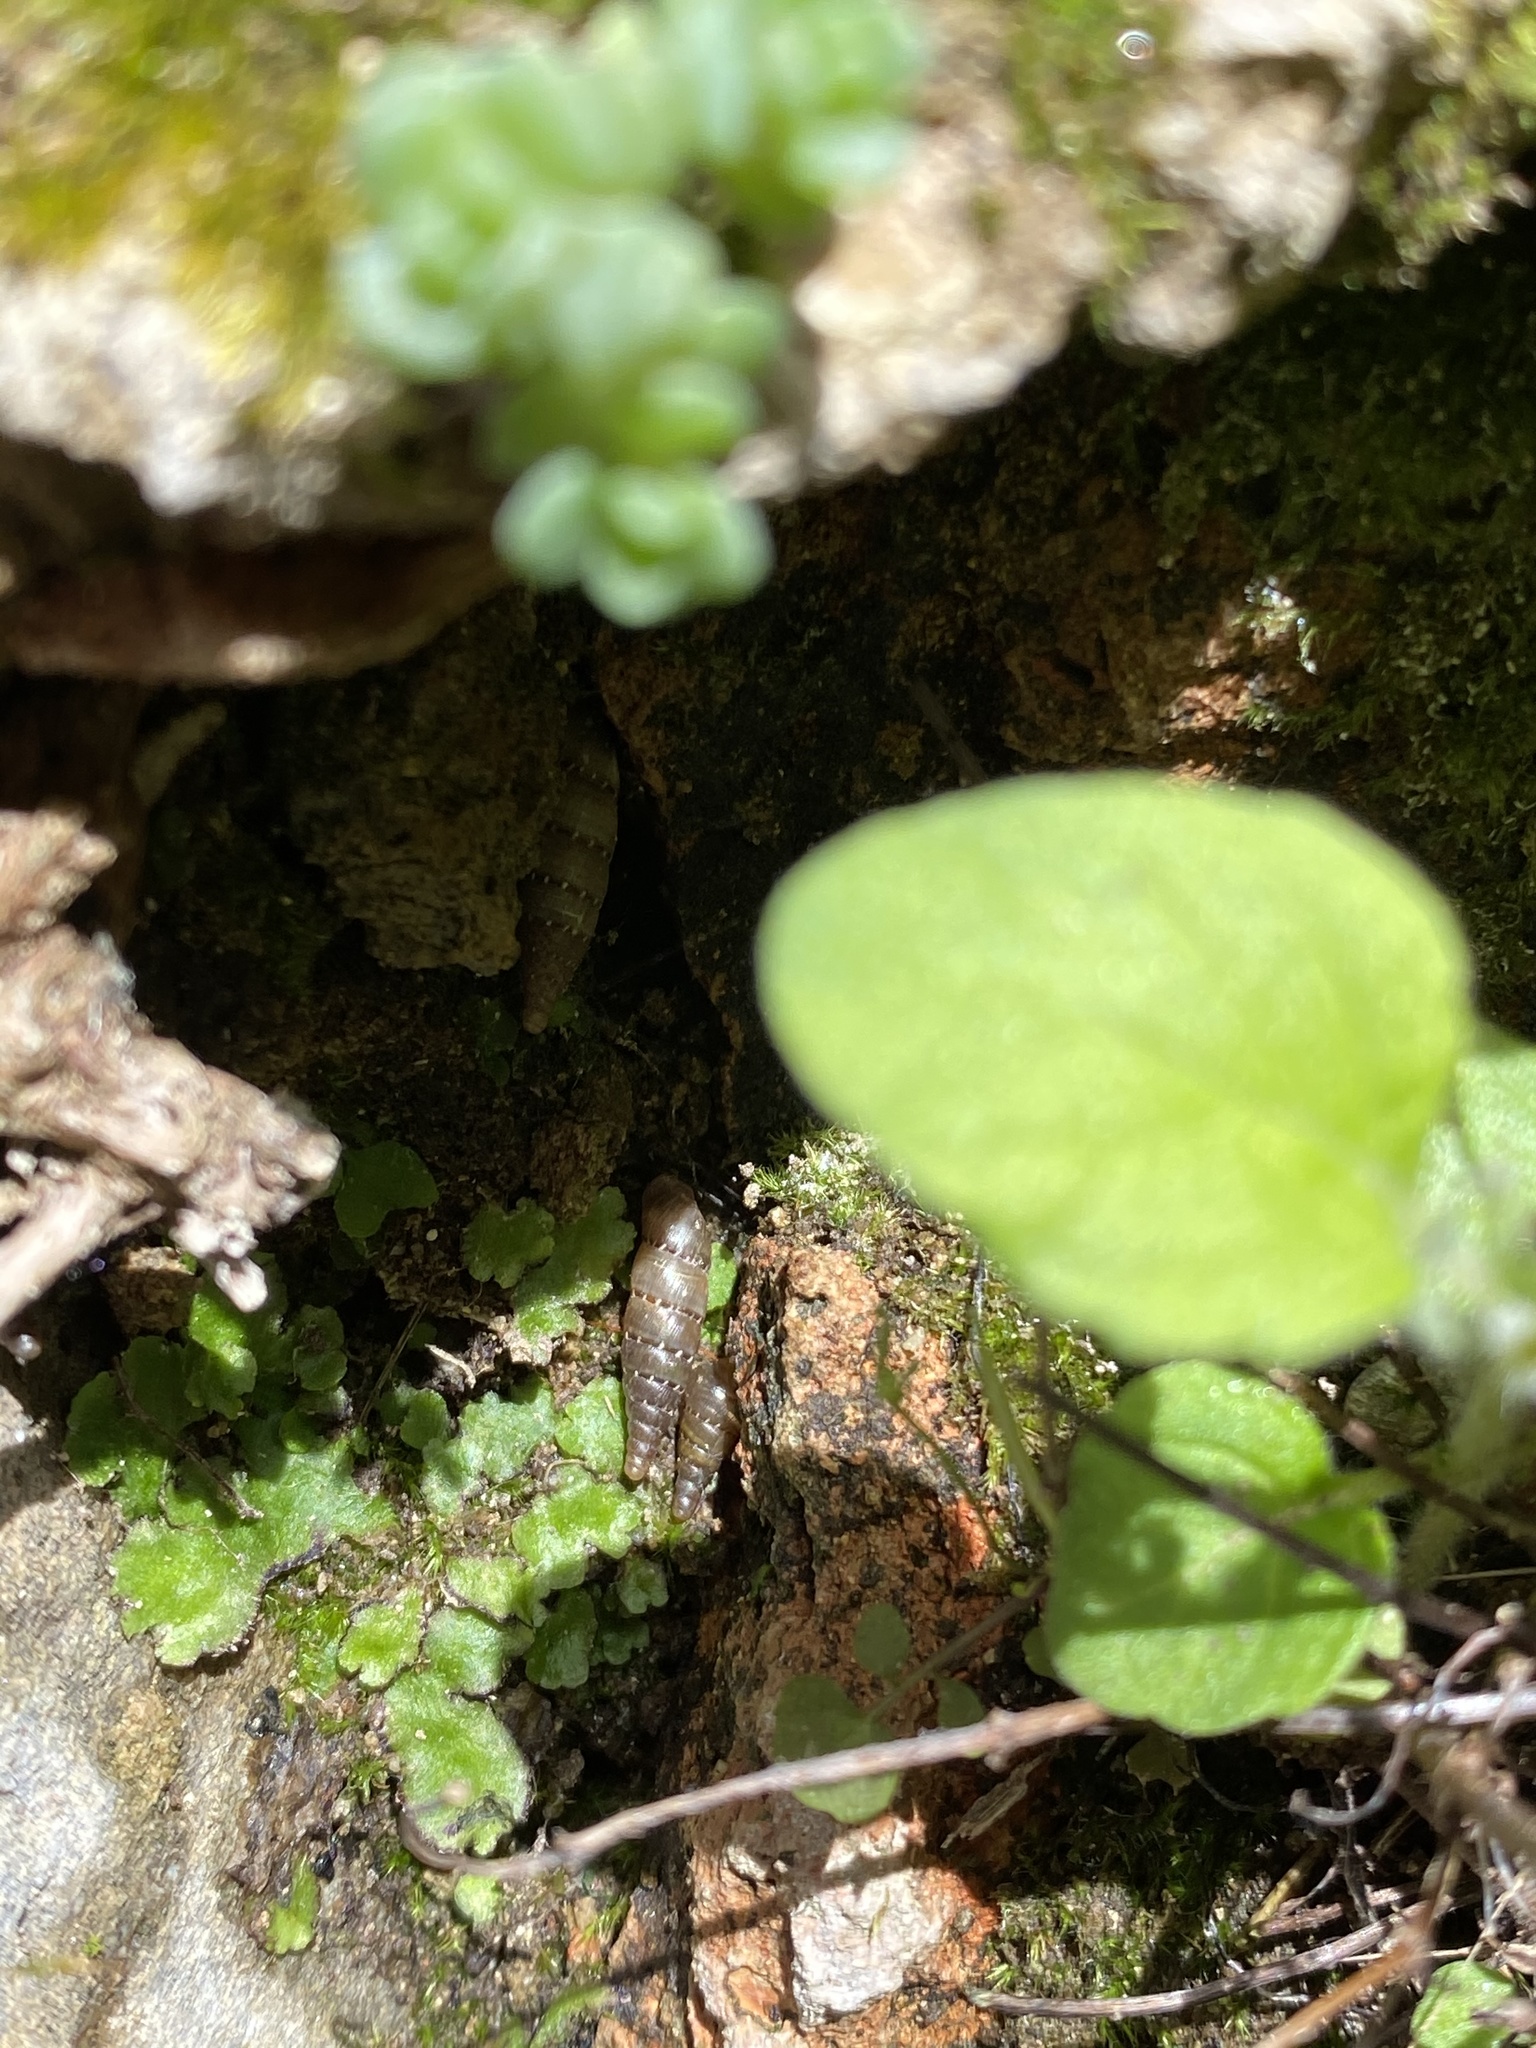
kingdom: Animalia
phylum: Mollusca
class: Gastropoda
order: Stylommatophora
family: Clausiliidae
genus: Papillifera
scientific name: Papillifera papillaris
